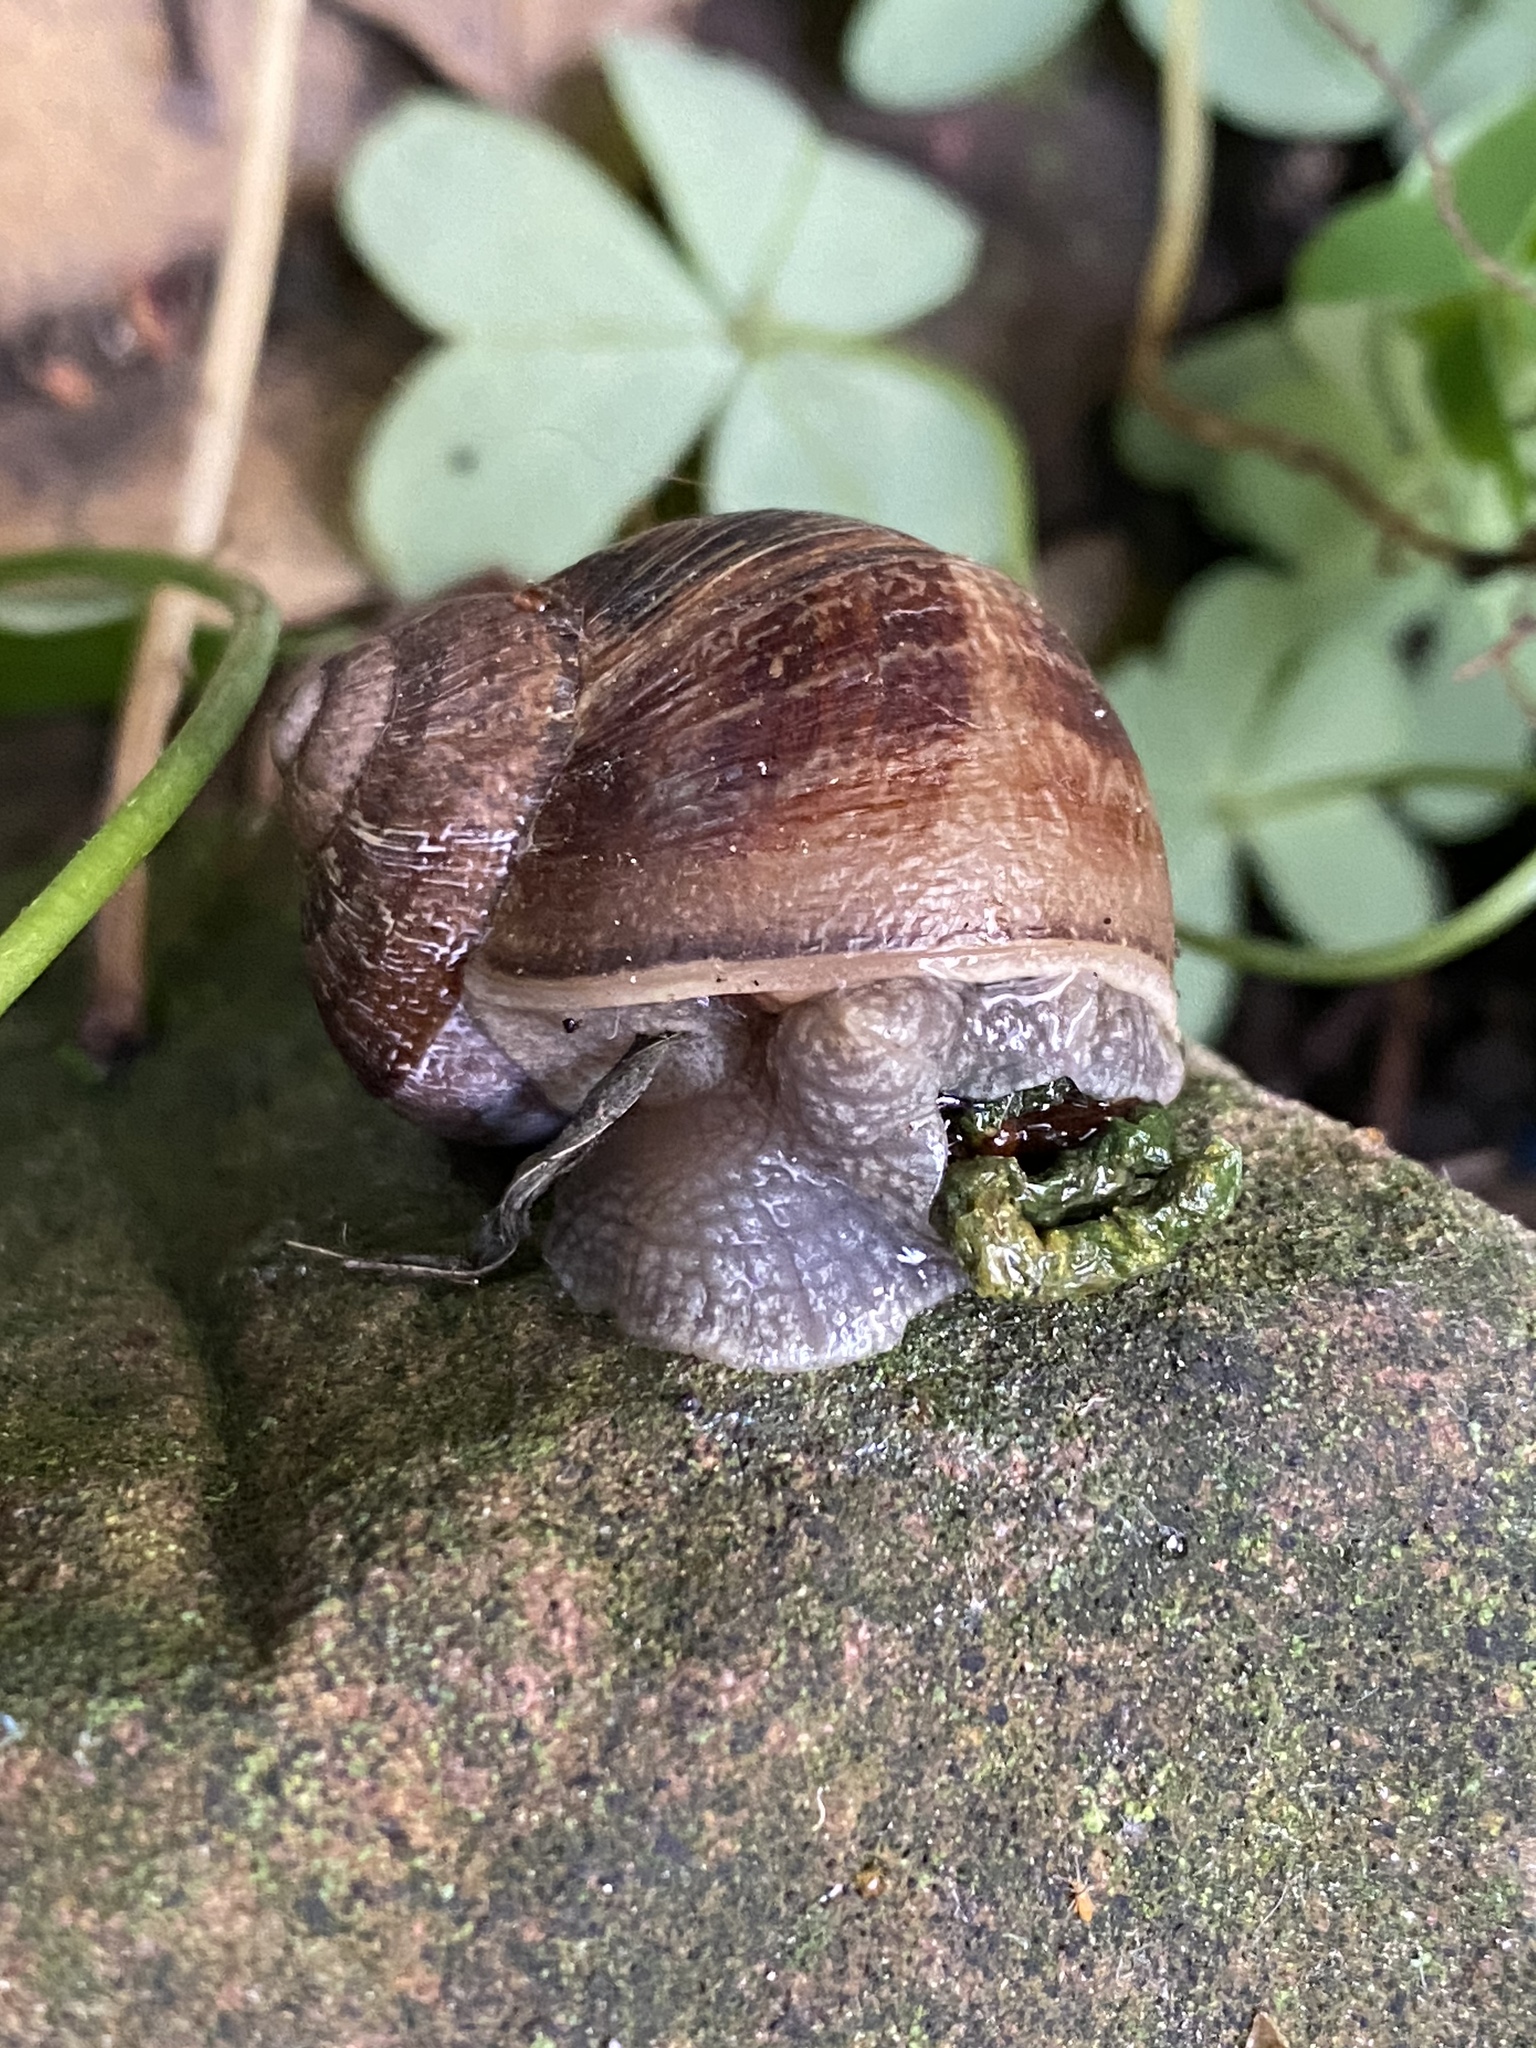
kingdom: Animalia
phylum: Mollusca
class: Gastropoda
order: Stylommatophora
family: Helicidae
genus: Cornu
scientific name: Cornu aspersum
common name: Brown garden snail
